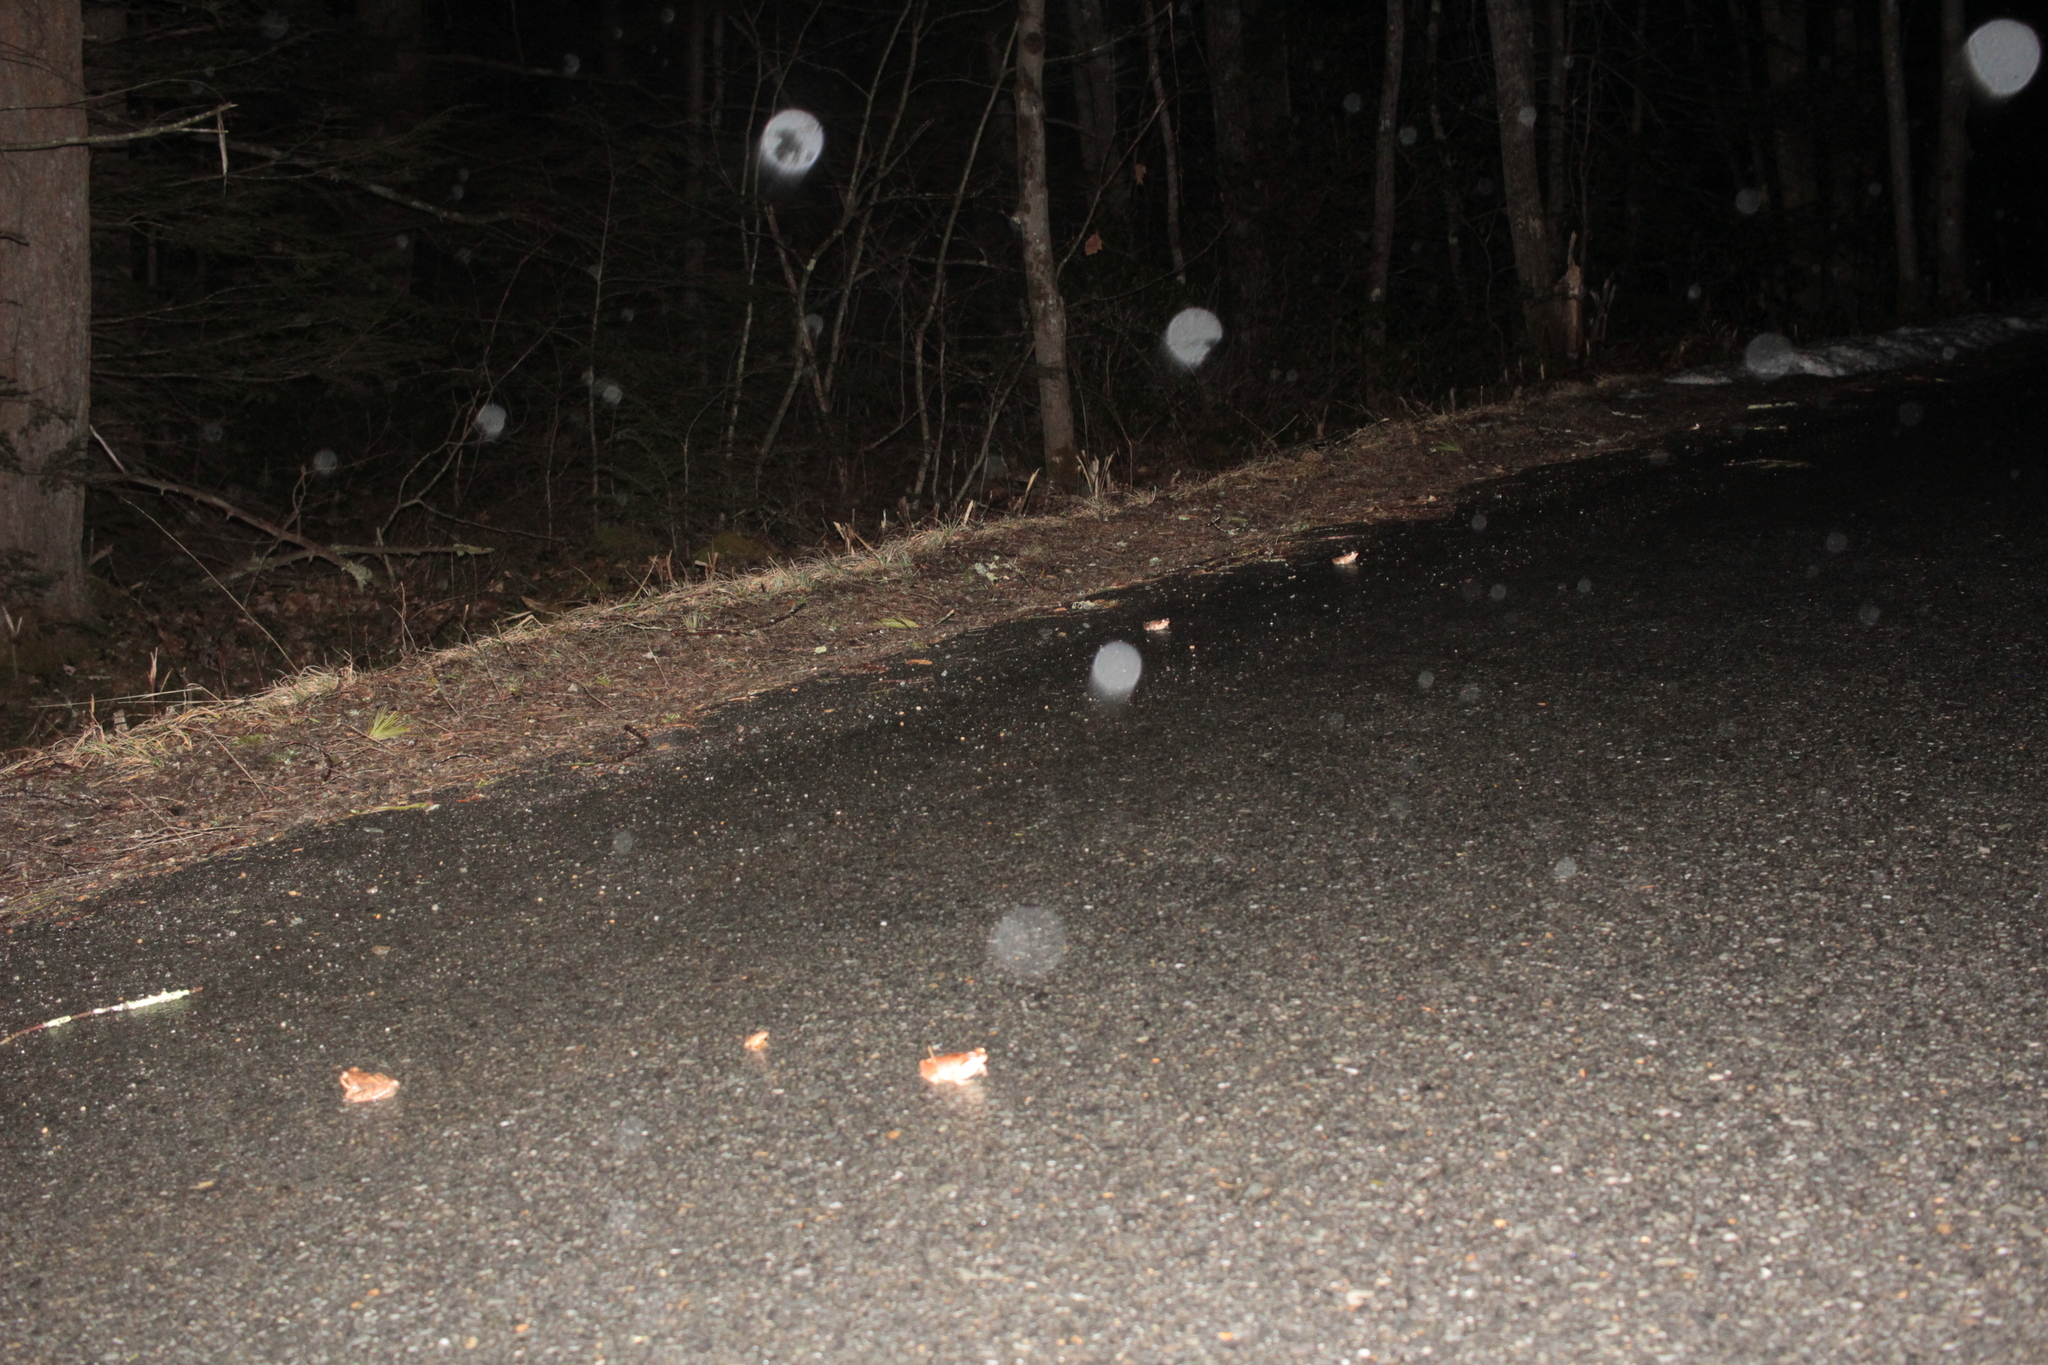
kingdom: Animalia
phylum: Chordata
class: Amphibia
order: Anura
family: Ranidae
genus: Lithobates
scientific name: Lithobates sylvaticus
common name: Wood frog
